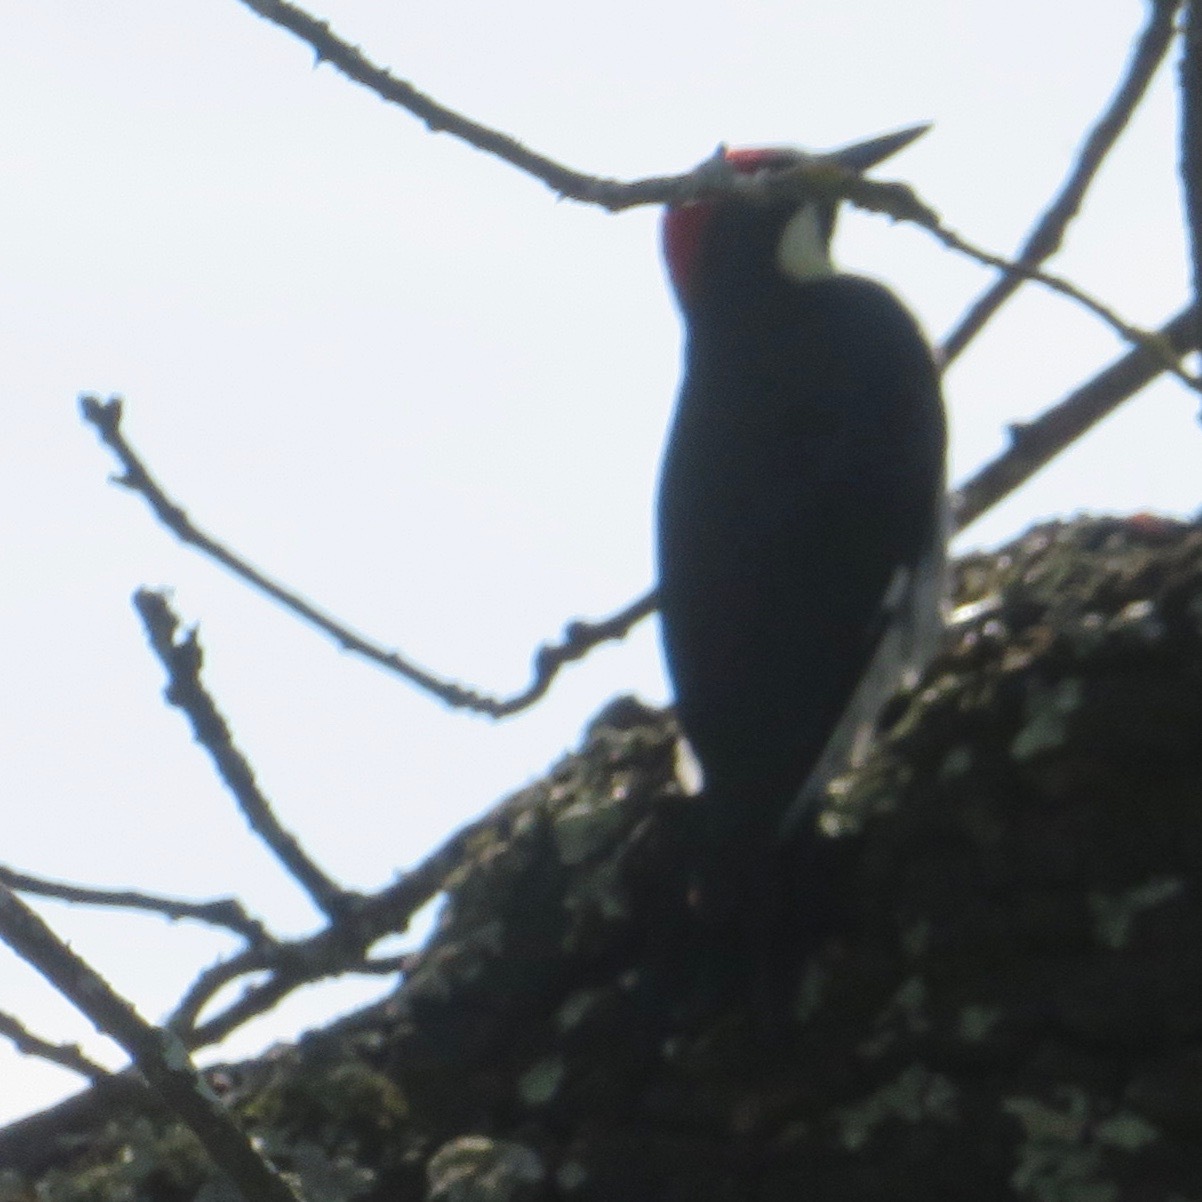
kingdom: Animalia
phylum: Chordata
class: Aves
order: Piciformes
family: Picidae
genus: Melanerpes
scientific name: Melanerpes formicivorus
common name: Acorn woodpecker
